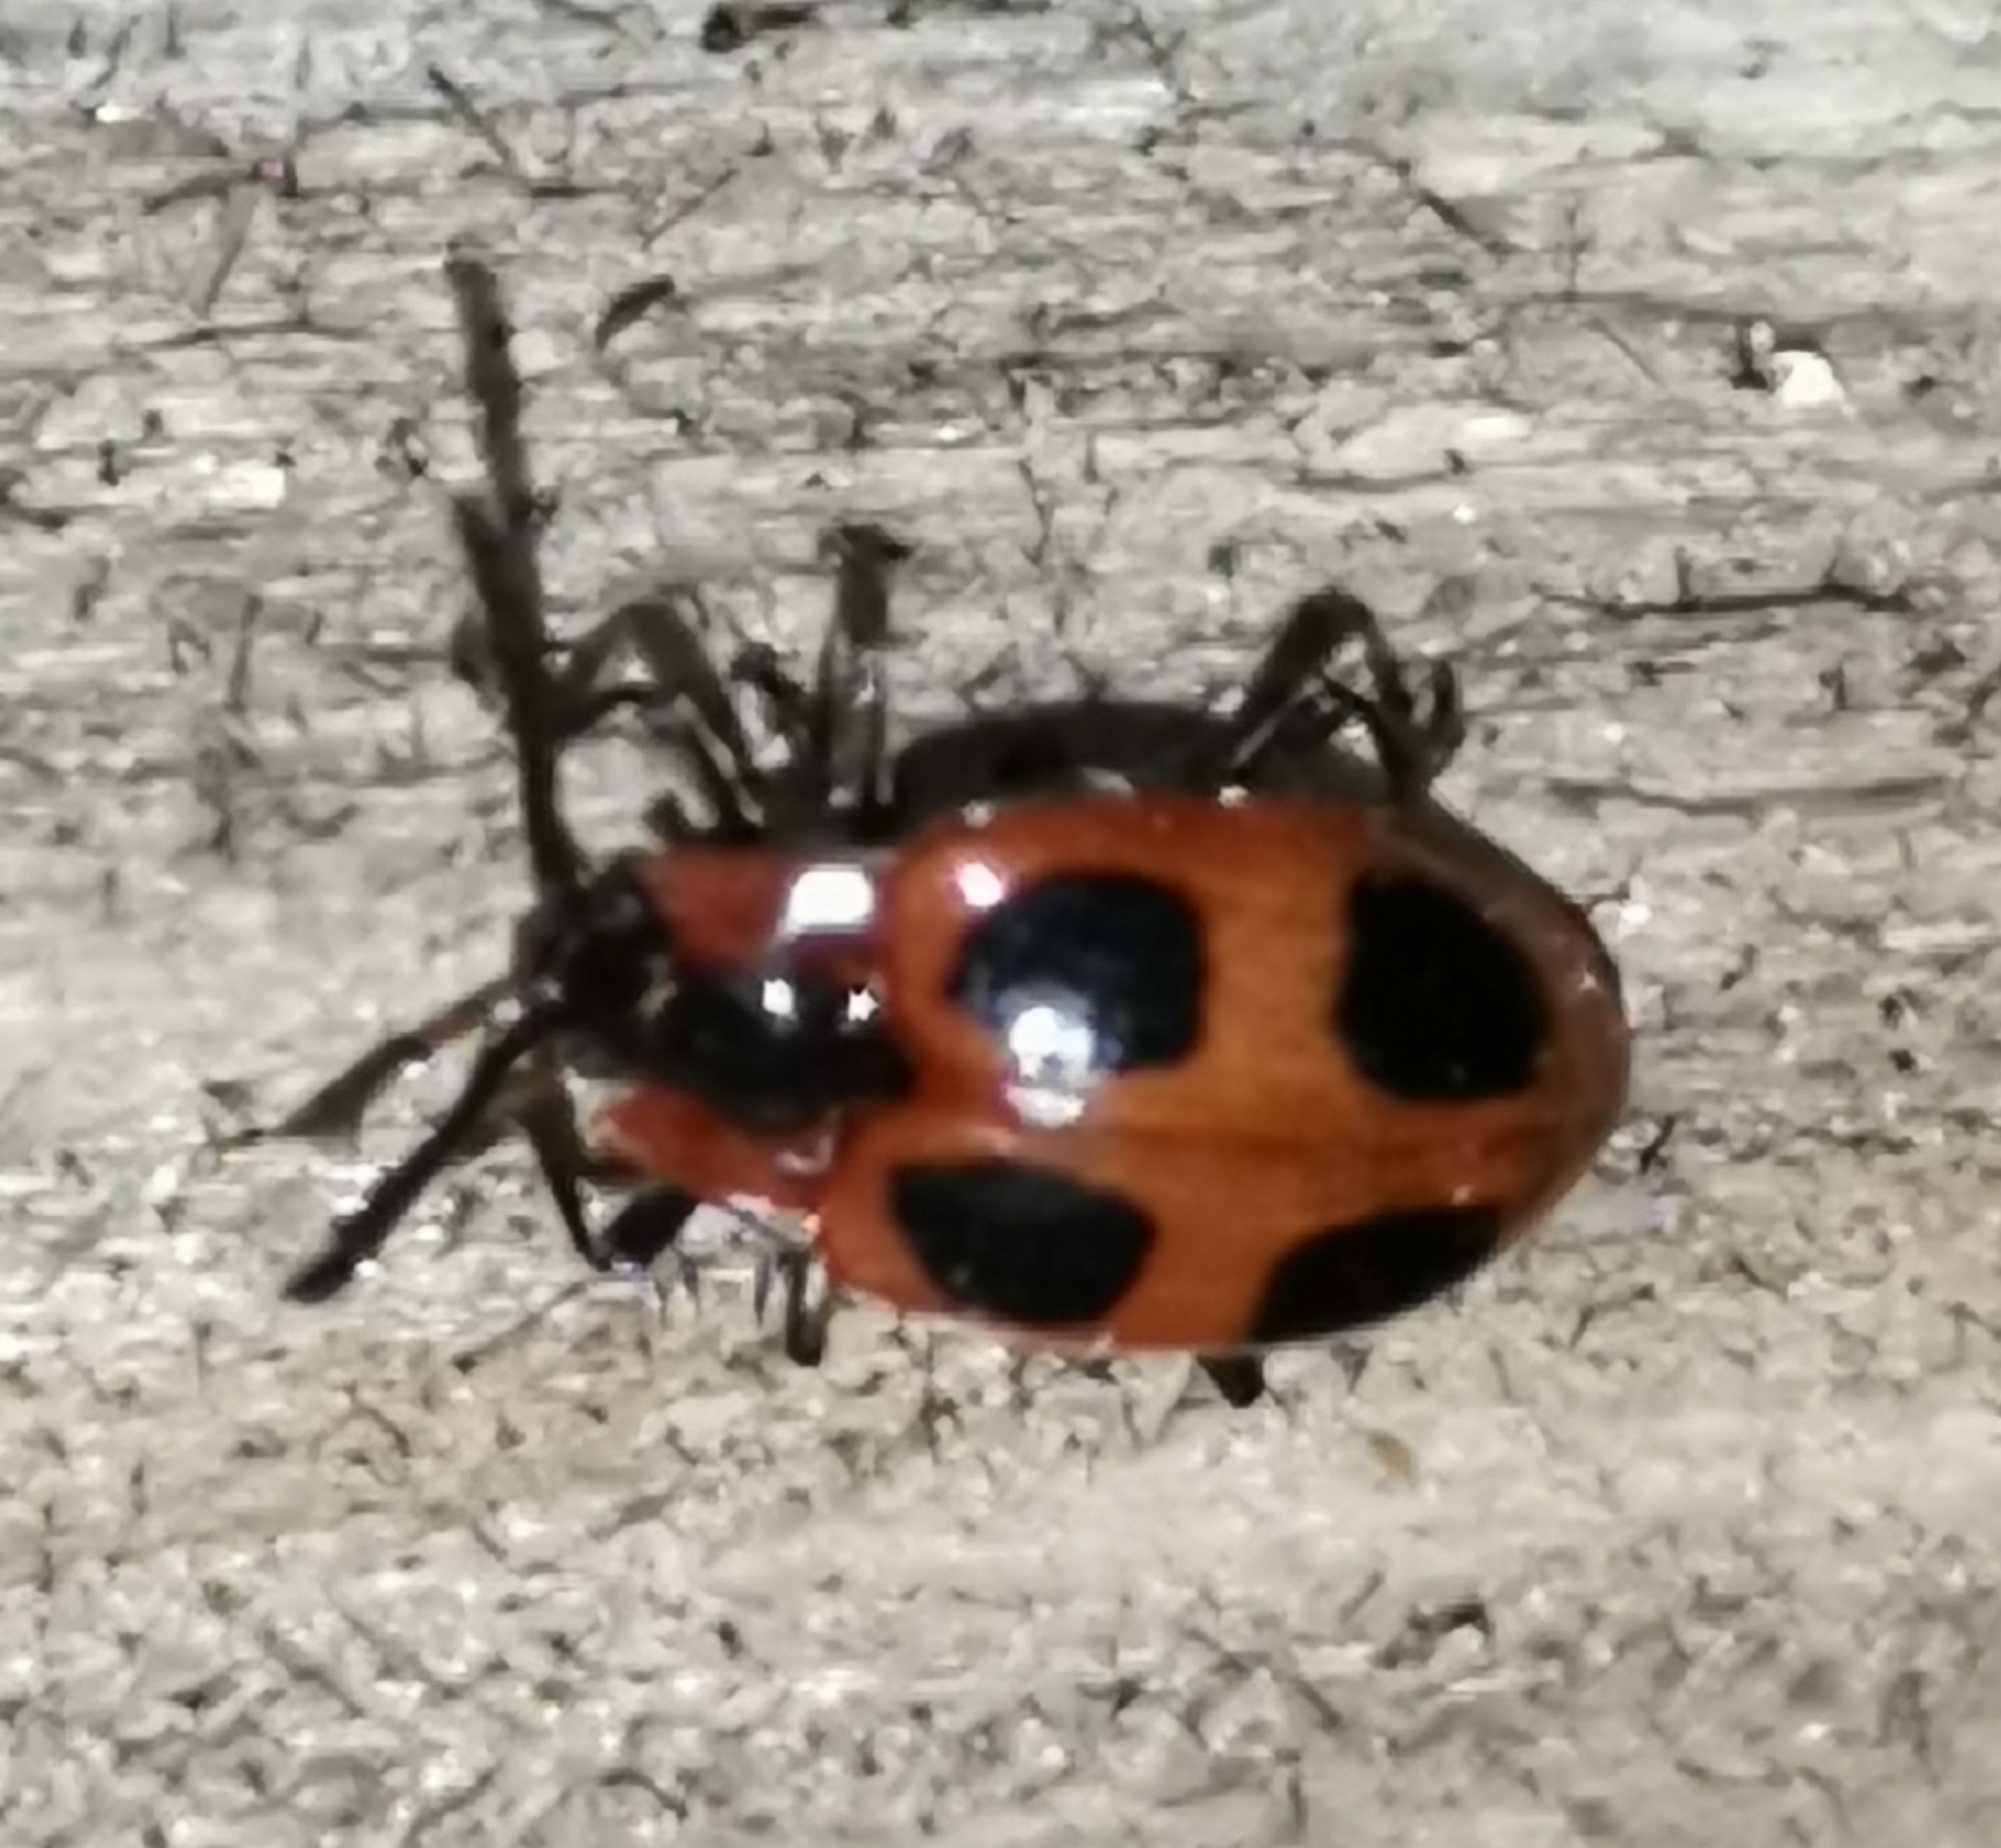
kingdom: Animalia
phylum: Arthropoda
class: Insecta
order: Coleoptera
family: Endomychidae
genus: Endomychus
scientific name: Endomychus coccineus
